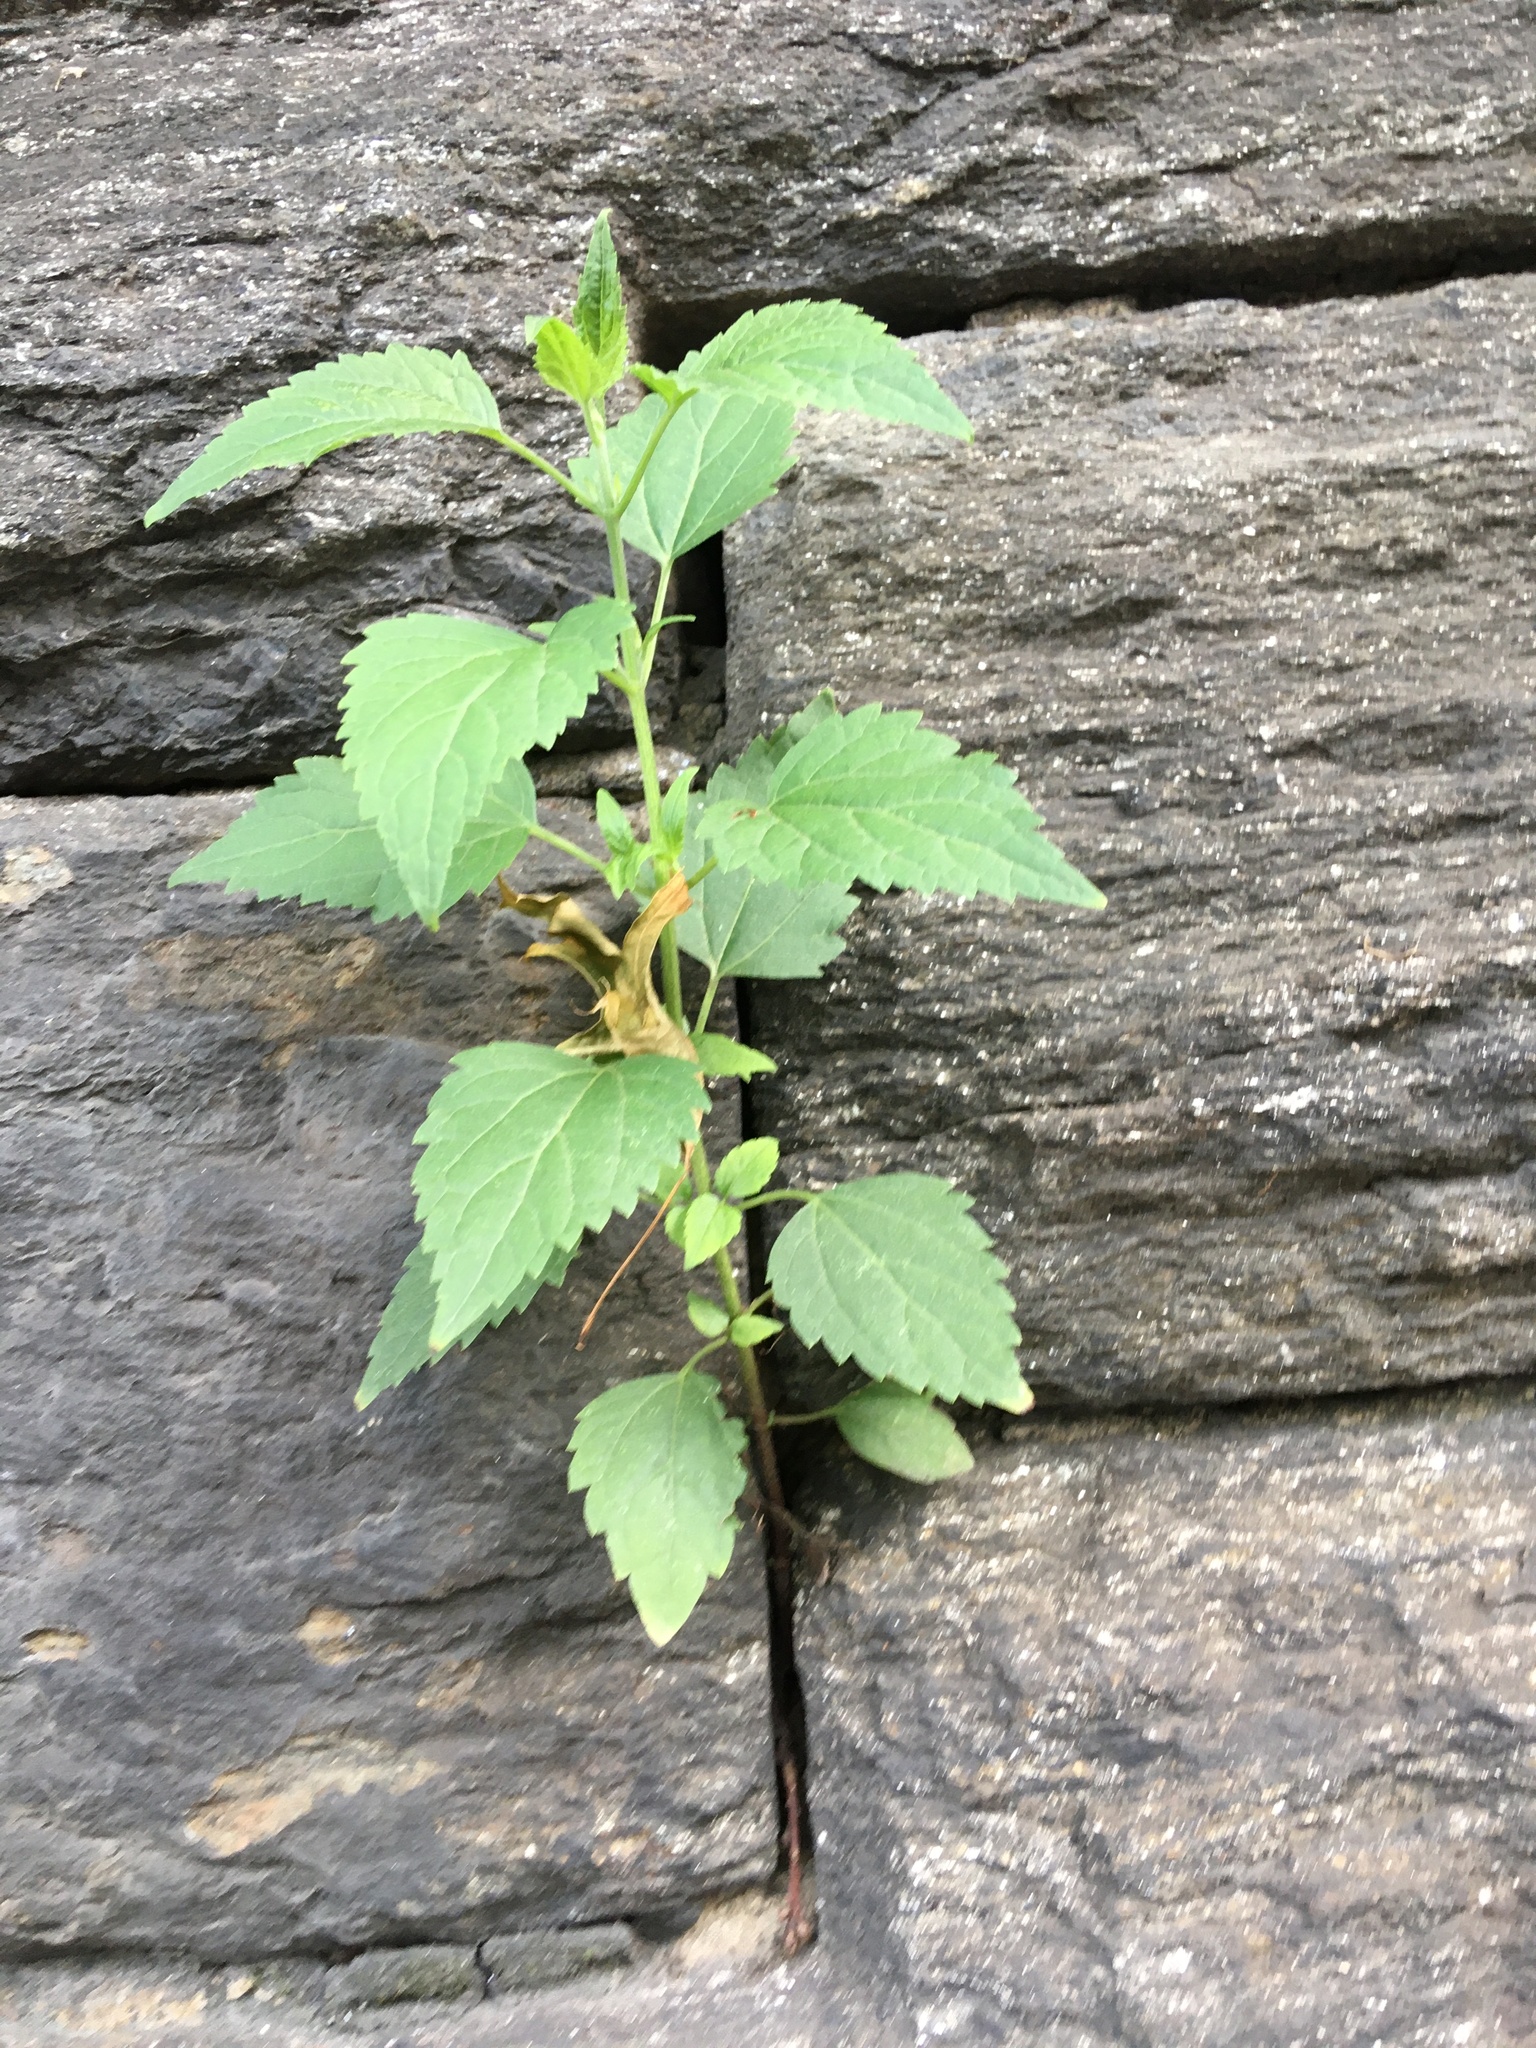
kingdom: Plantae
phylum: Tracheophyta
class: Magnoliopsida
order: Asterales
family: Asteraceae
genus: Ageratina
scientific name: Ageratina altissima
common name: White snakeroot
